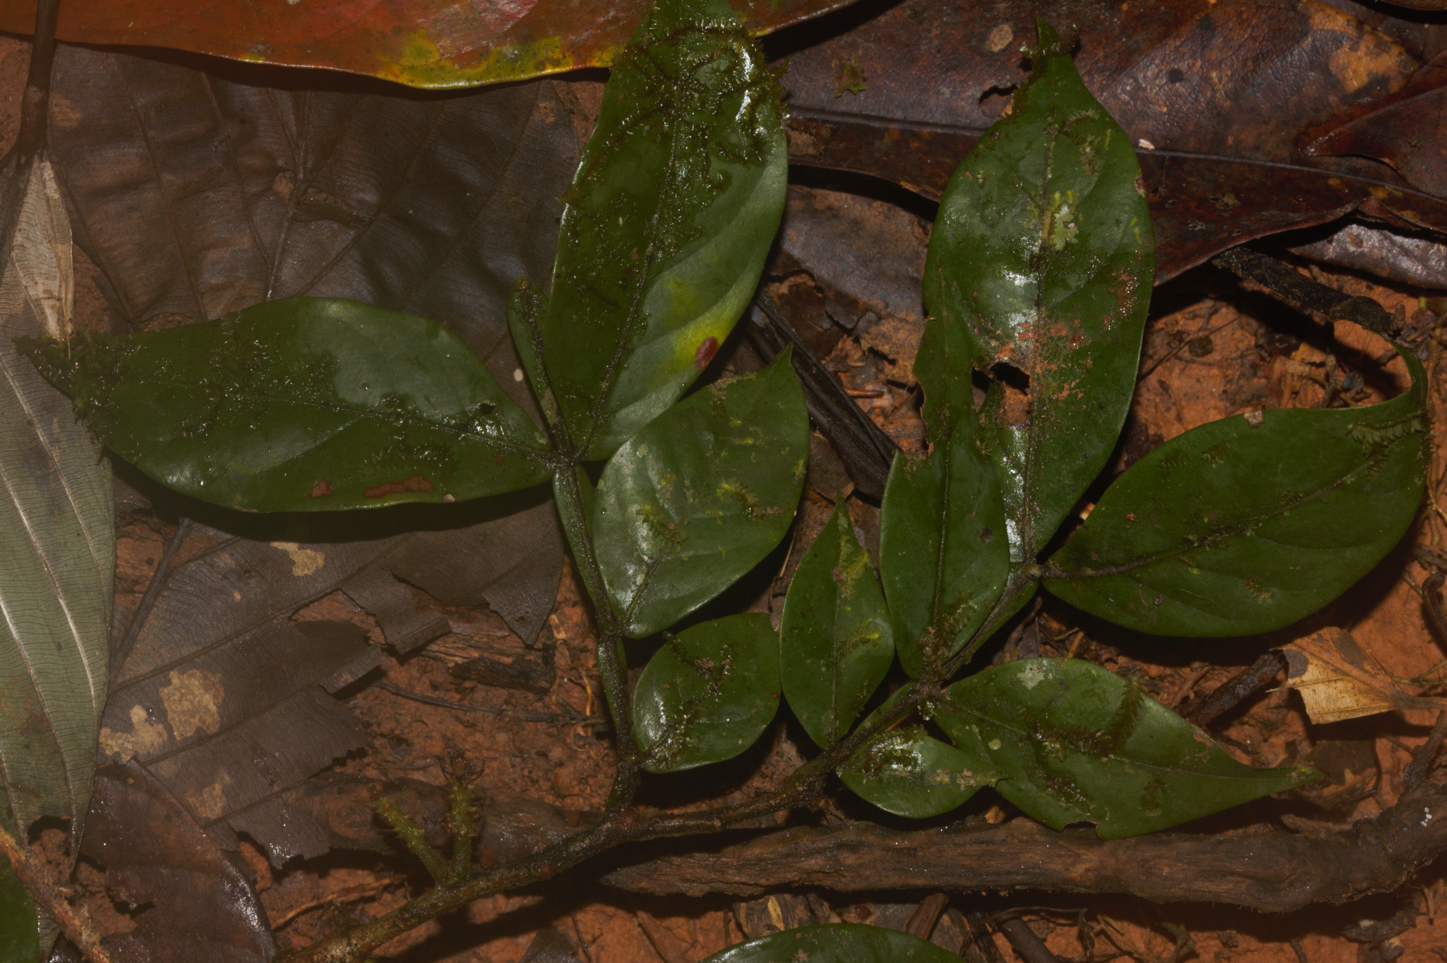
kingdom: Plantae
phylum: Tracheophyta
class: Magnoliopsida
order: Fabales
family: Fabaceae
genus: Inga
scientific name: Inga
